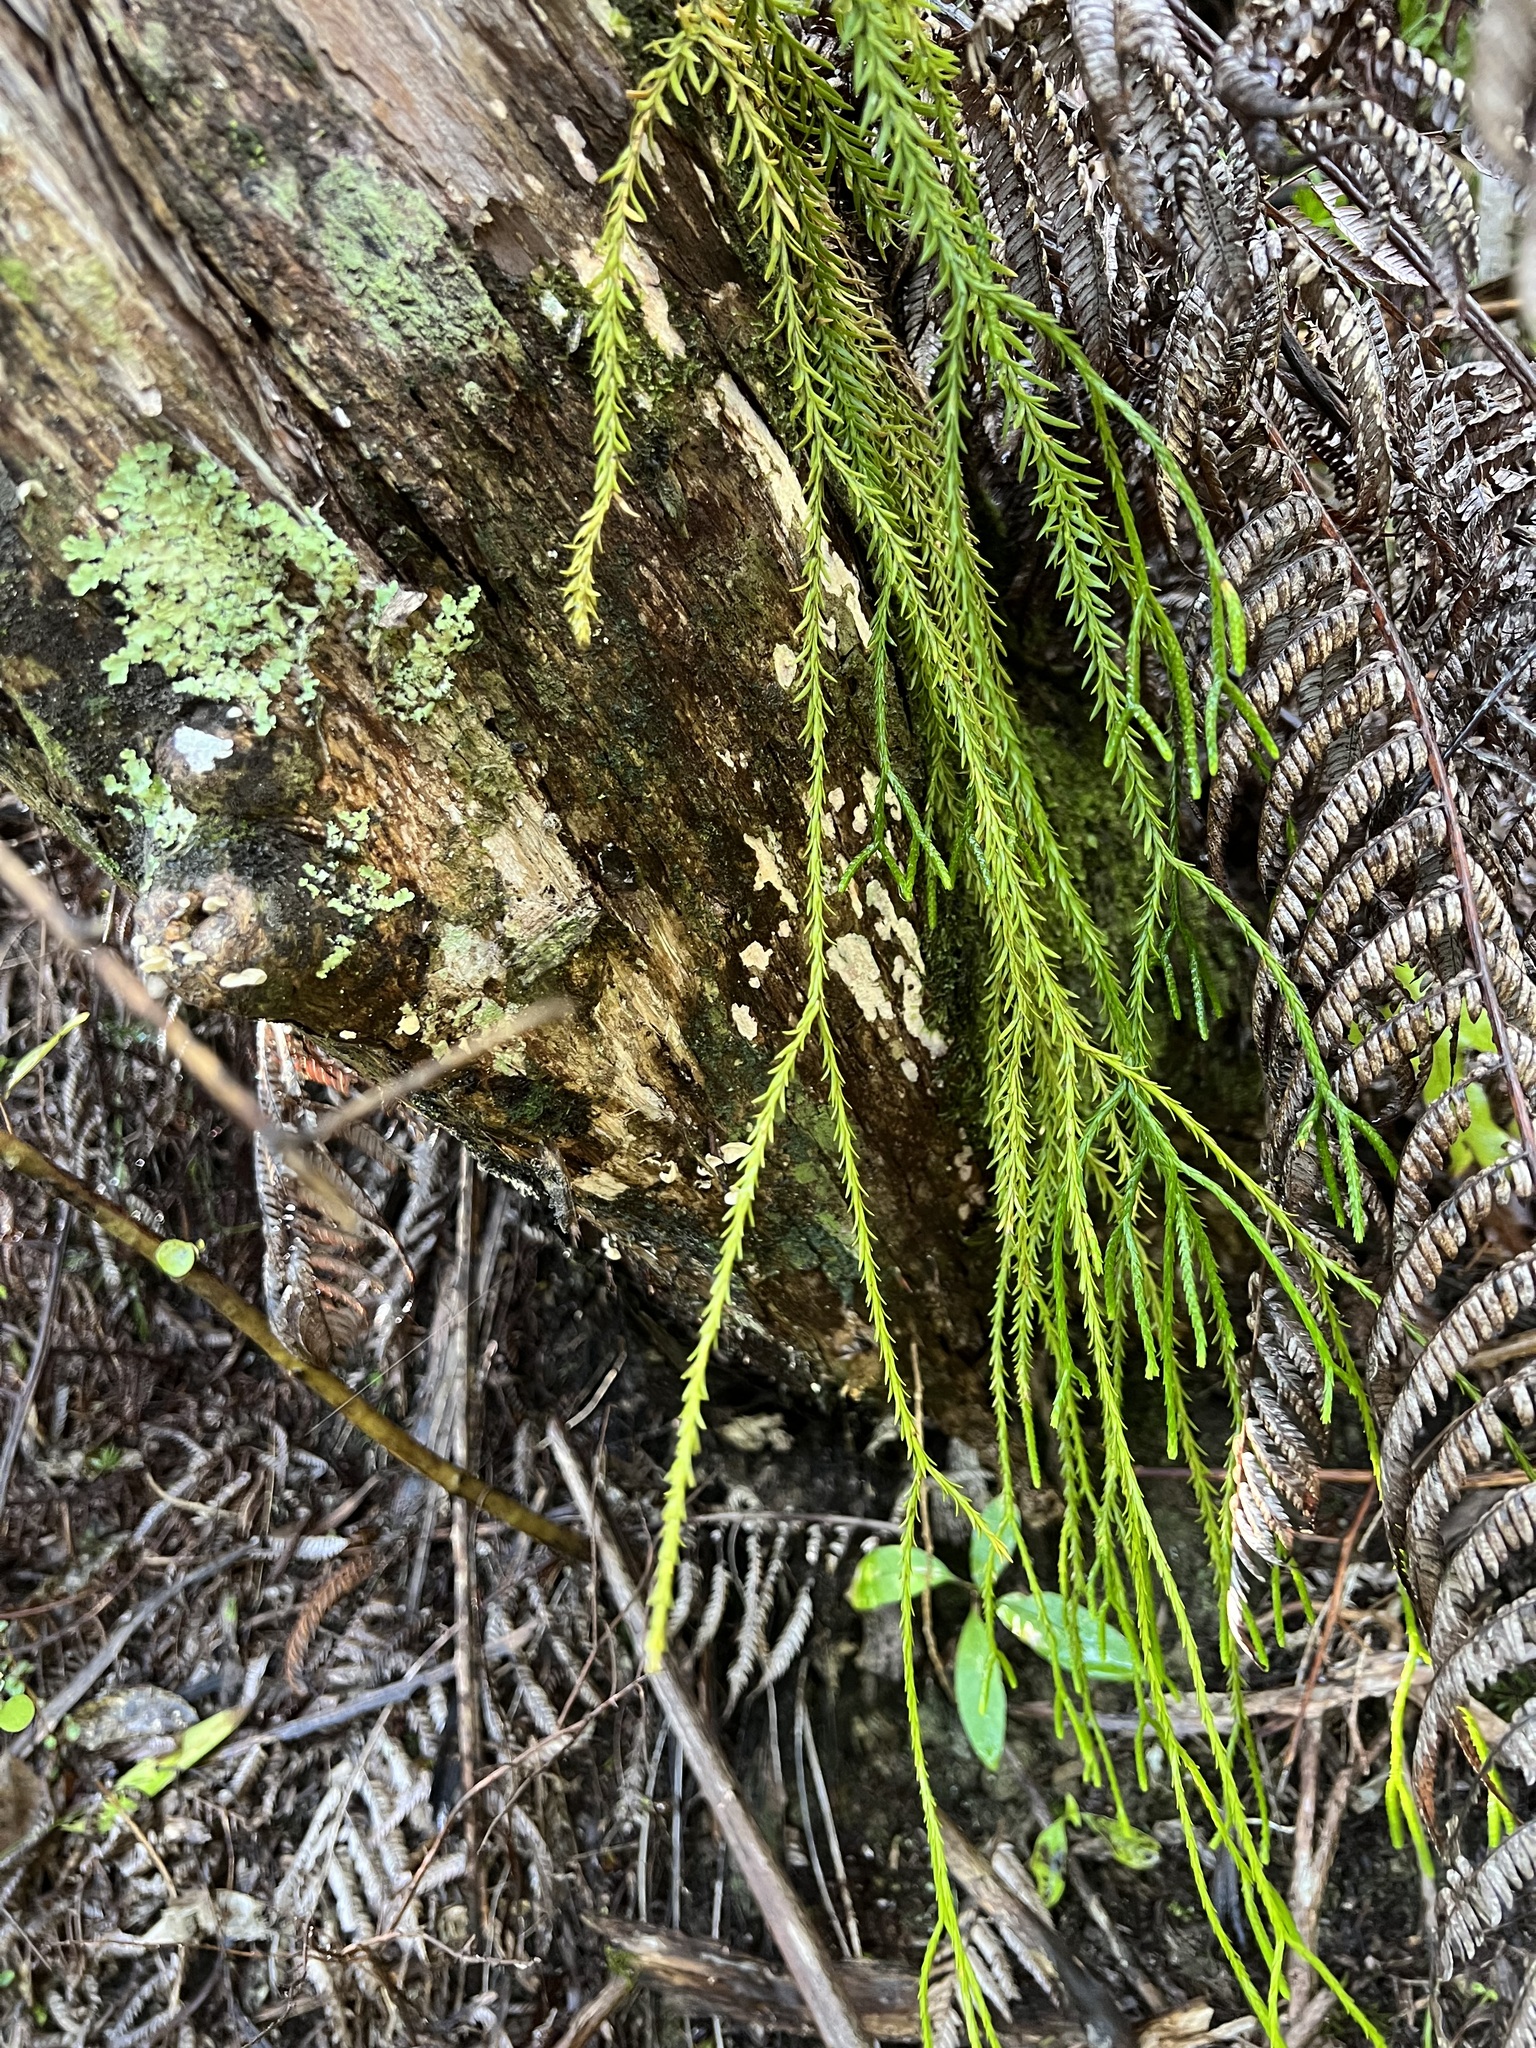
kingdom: Plantae
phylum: Tracheophyta
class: Lycopodiopsida
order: Lycopodiales
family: Lycopodiaceae
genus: Phlegmariurus
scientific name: Phlegmariurus billardierei
